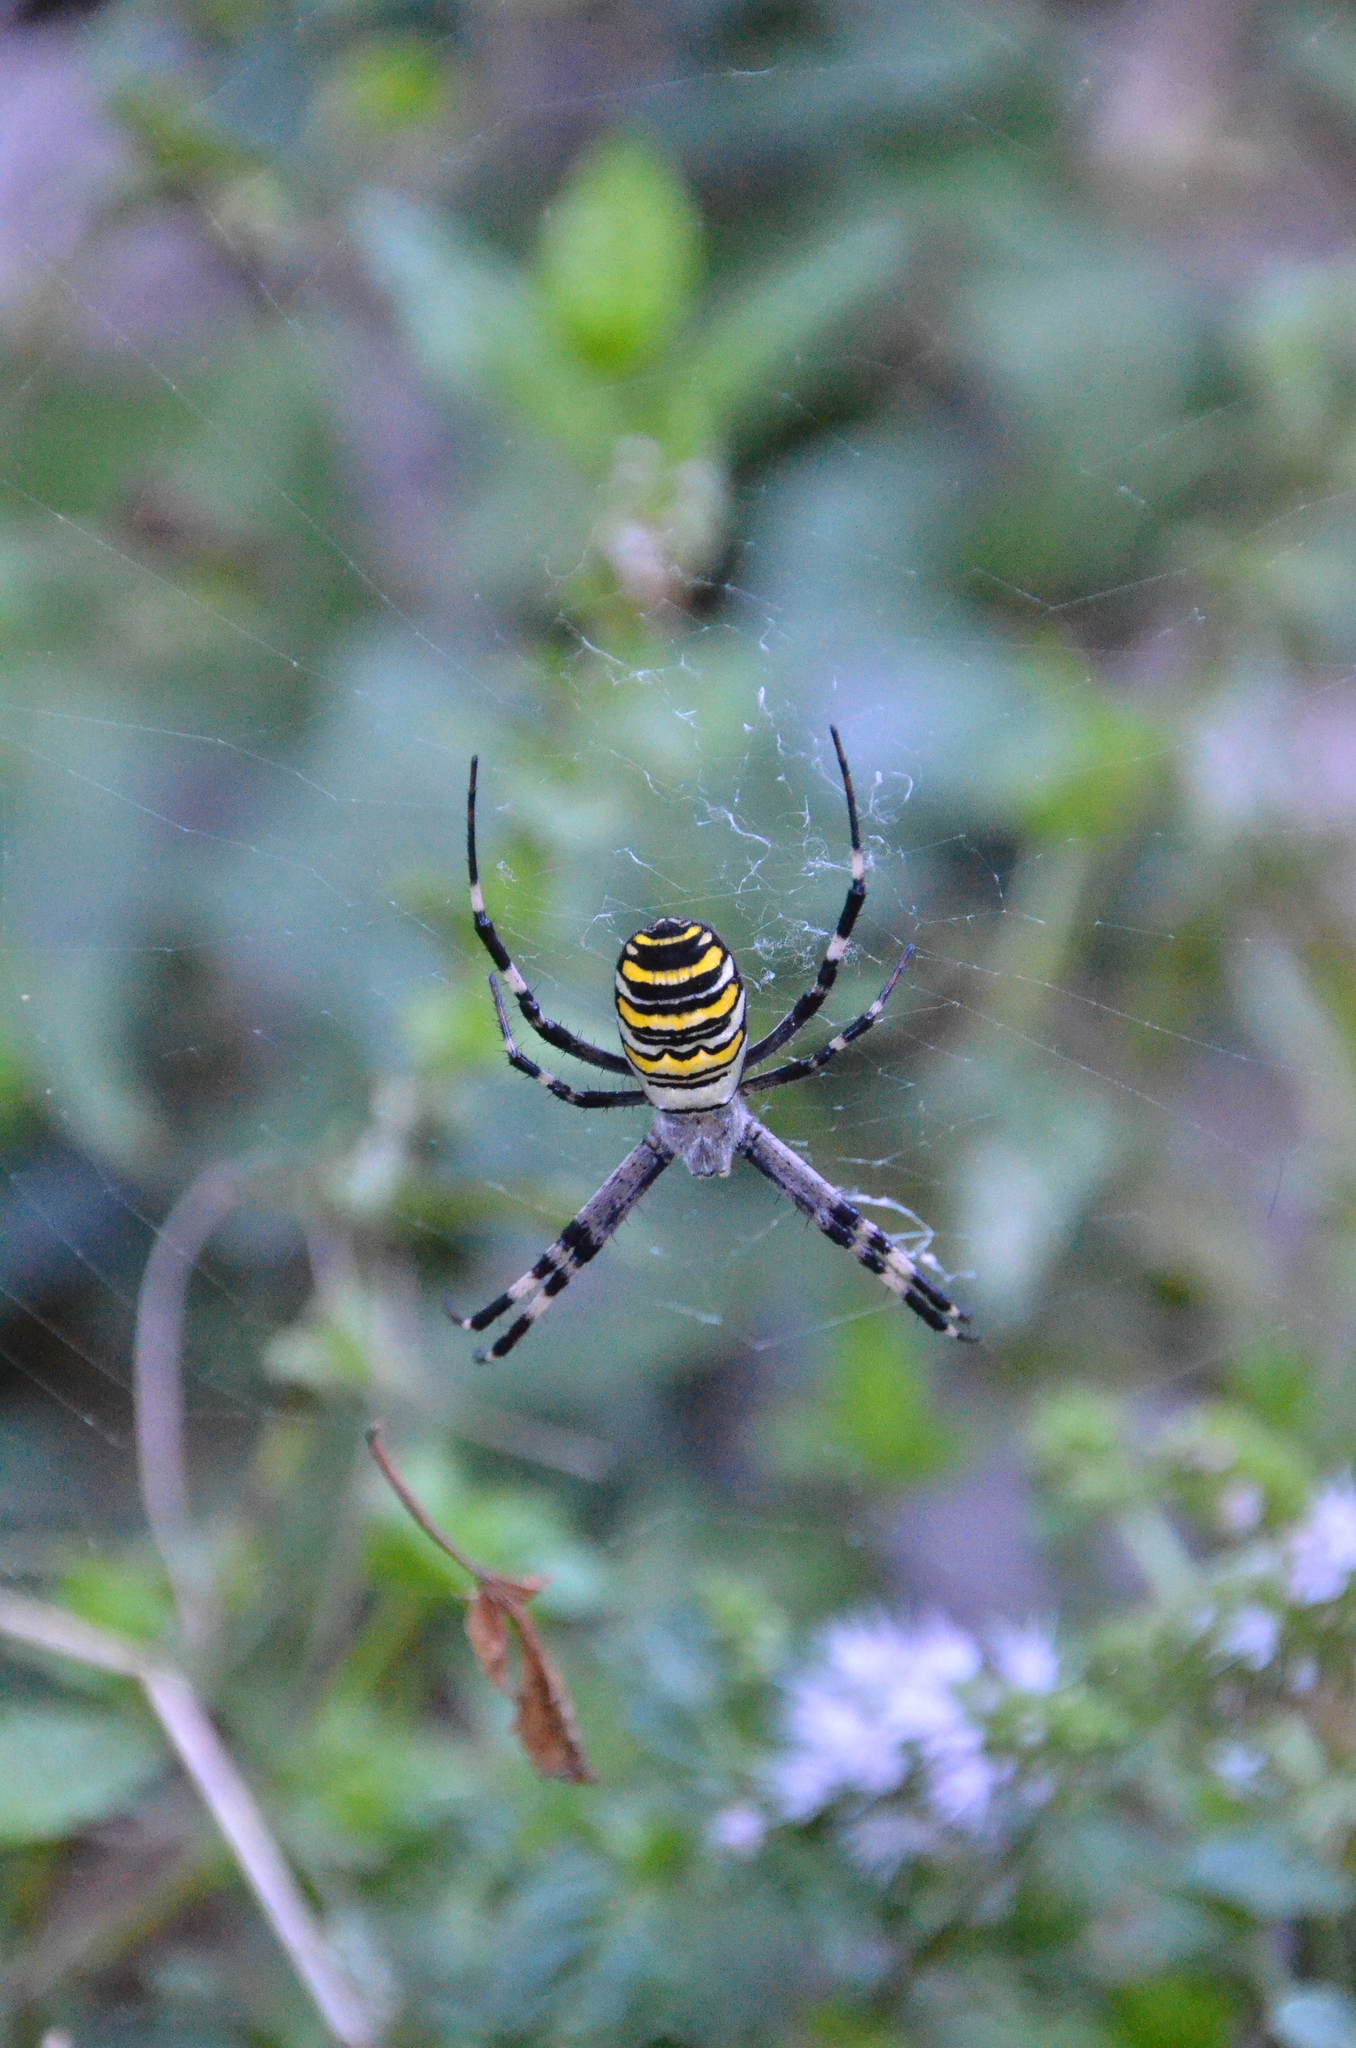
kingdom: Animalia
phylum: Arthropoda
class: Arachnida
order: Araneae
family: Araneidae
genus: Argiope
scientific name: Argiope bruennichi
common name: Wasp spider
